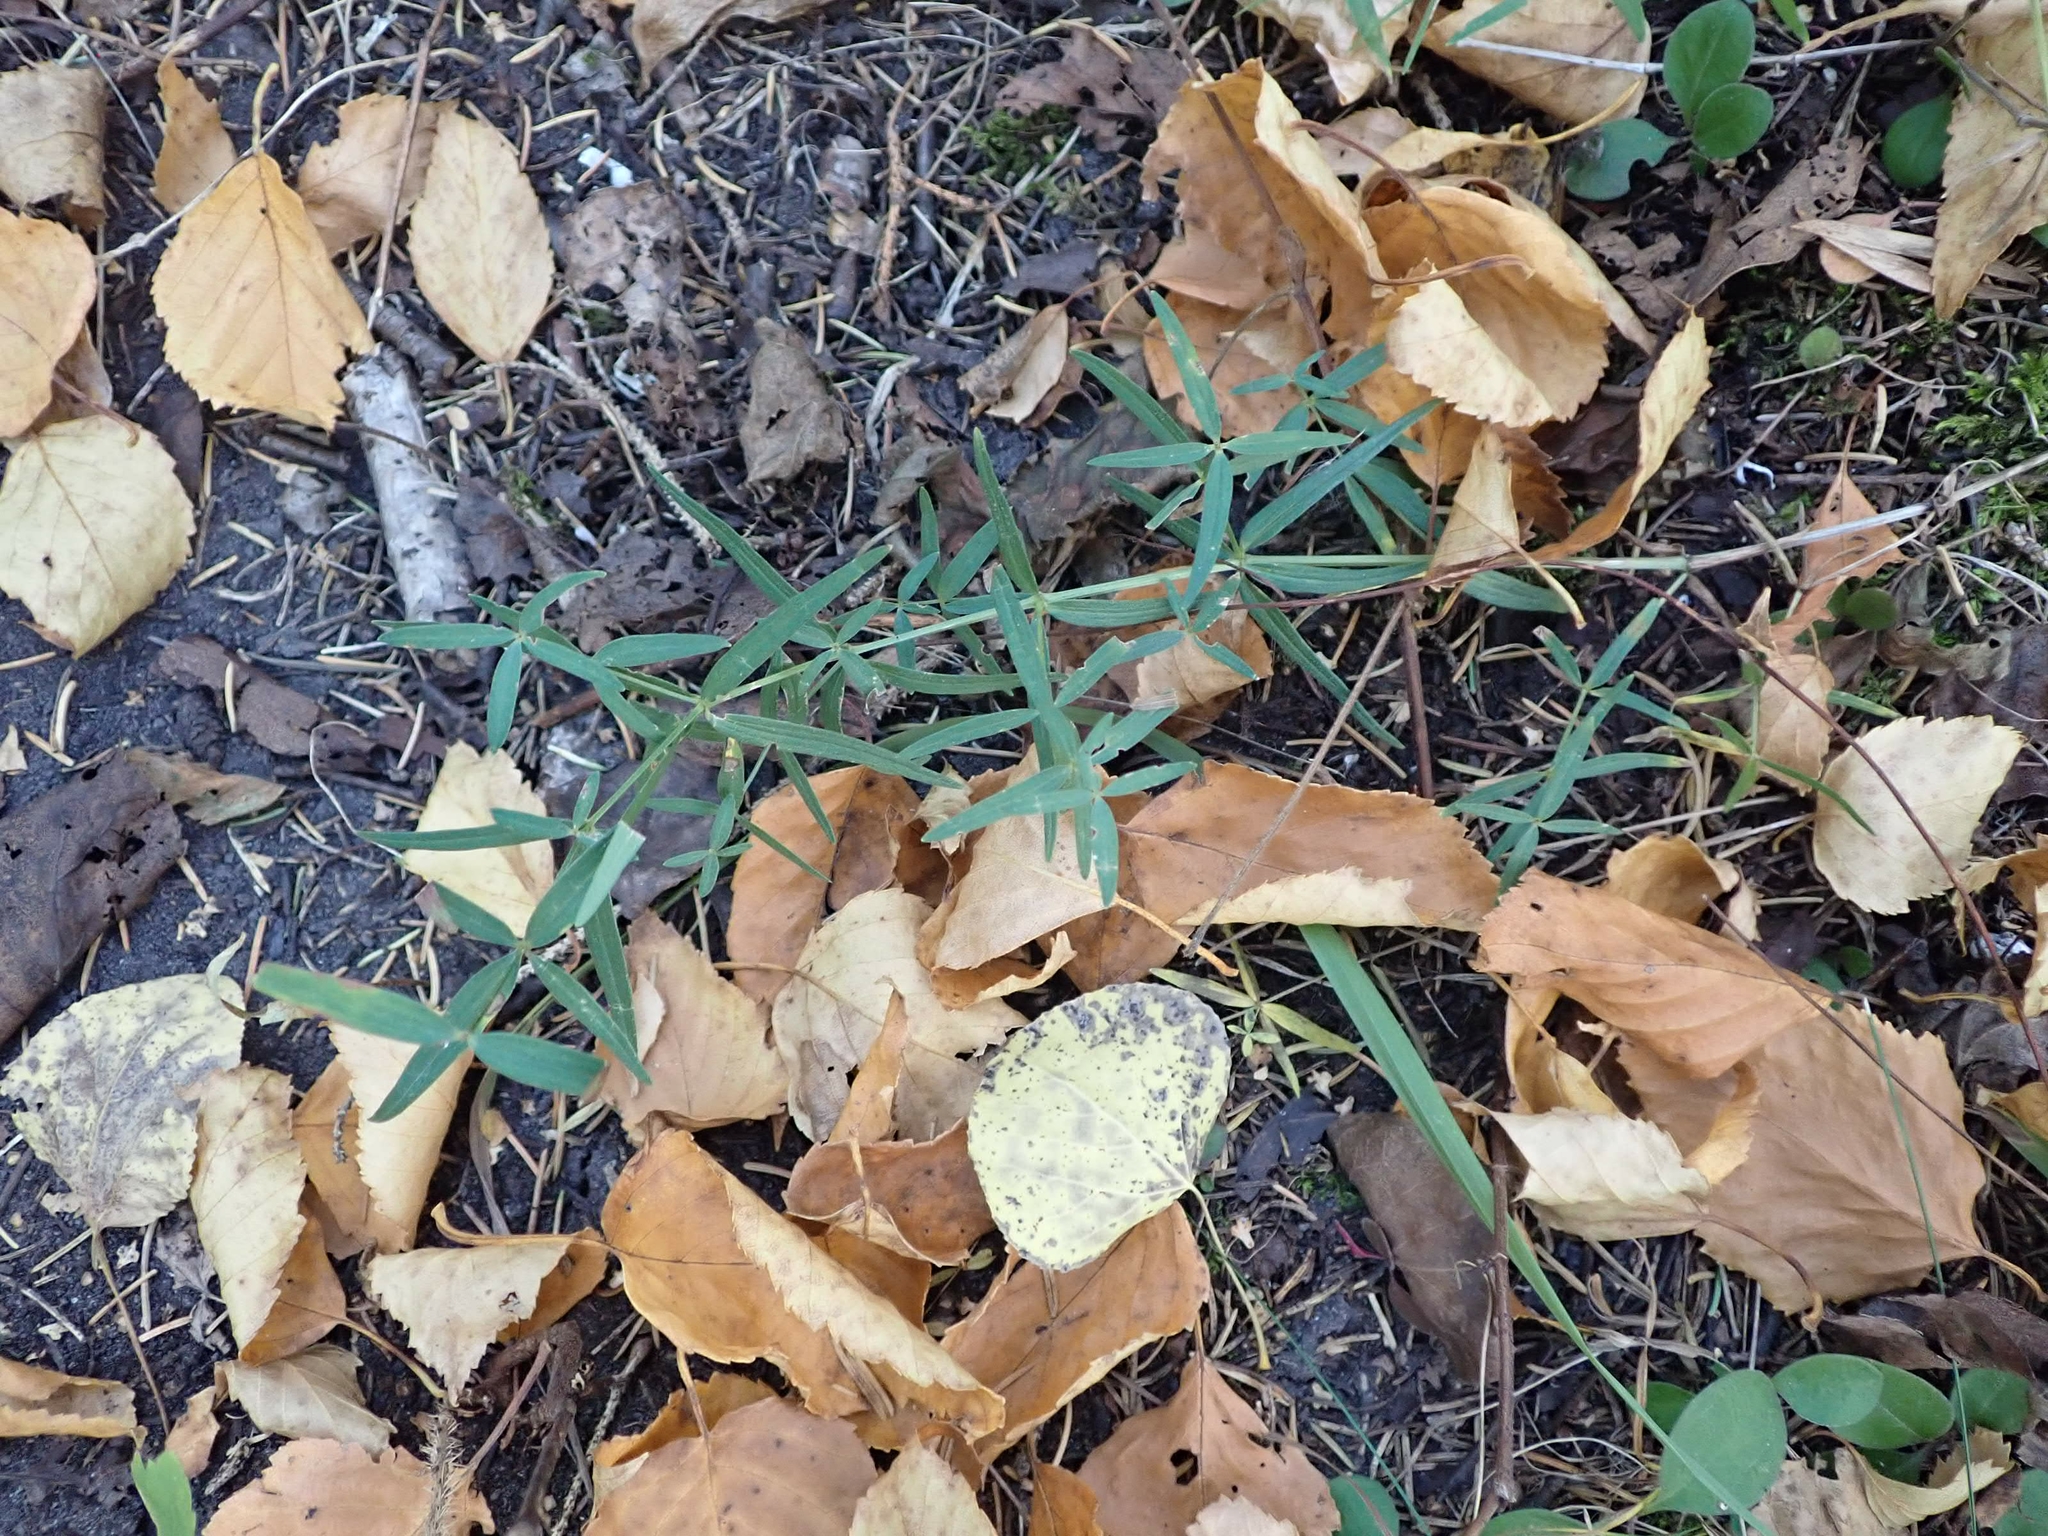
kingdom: Plantae
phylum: Tracheophyta
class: Magnoliopsida
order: Gentianales
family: Rubiaceae
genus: Galium
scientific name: Galium boreale
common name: Northern bedstraw
